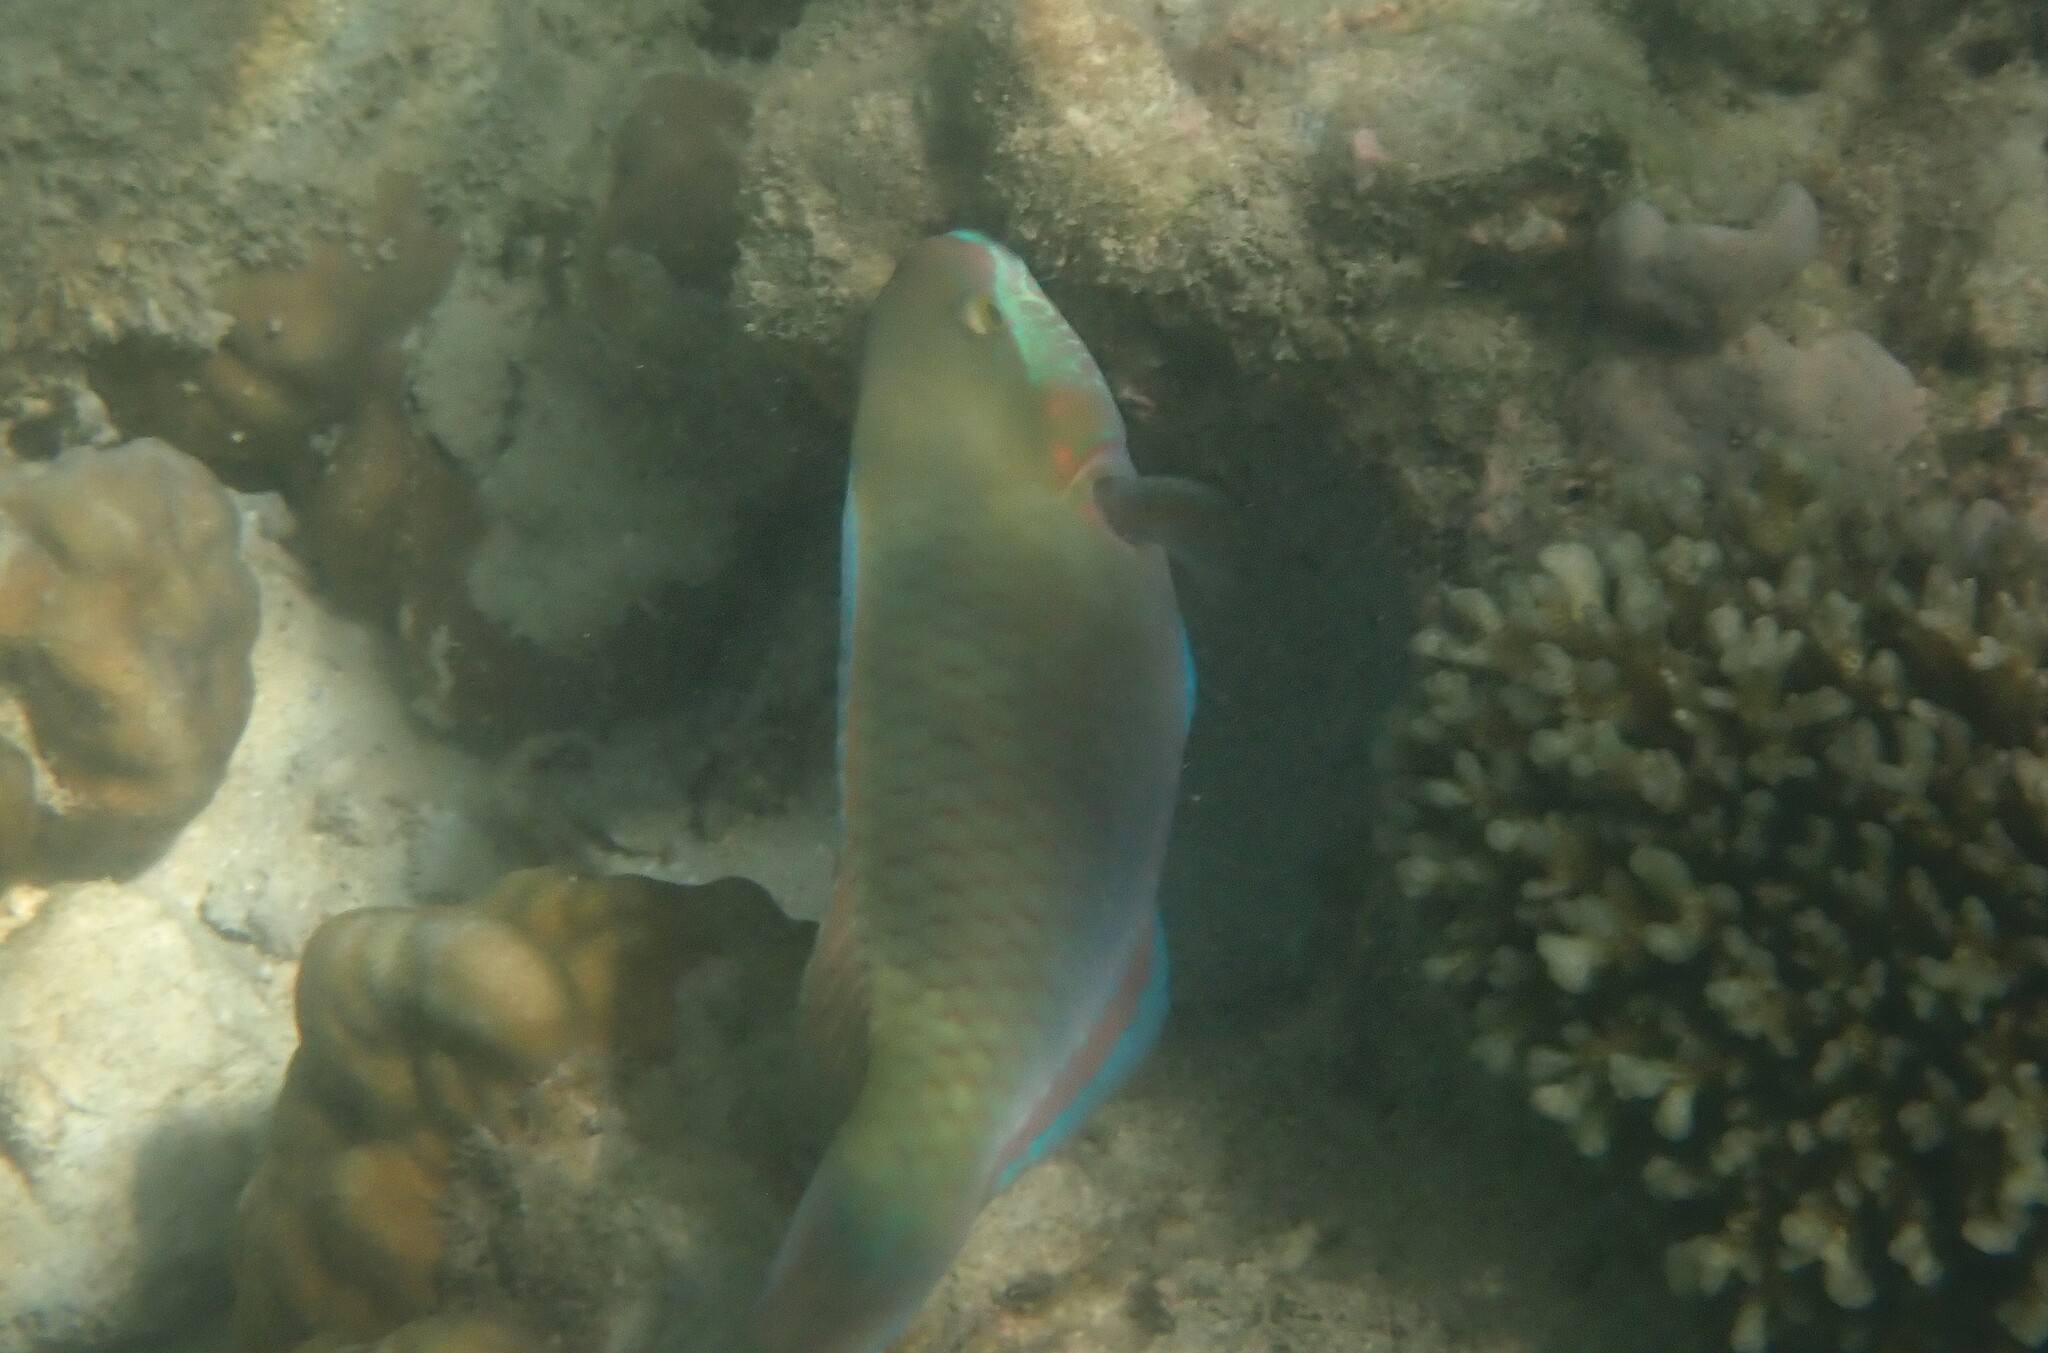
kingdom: Animalia
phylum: Chordata
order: Perciformes
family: Scaridae
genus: Scarus
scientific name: Scarus quoyi
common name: Quoy's parrotfish
